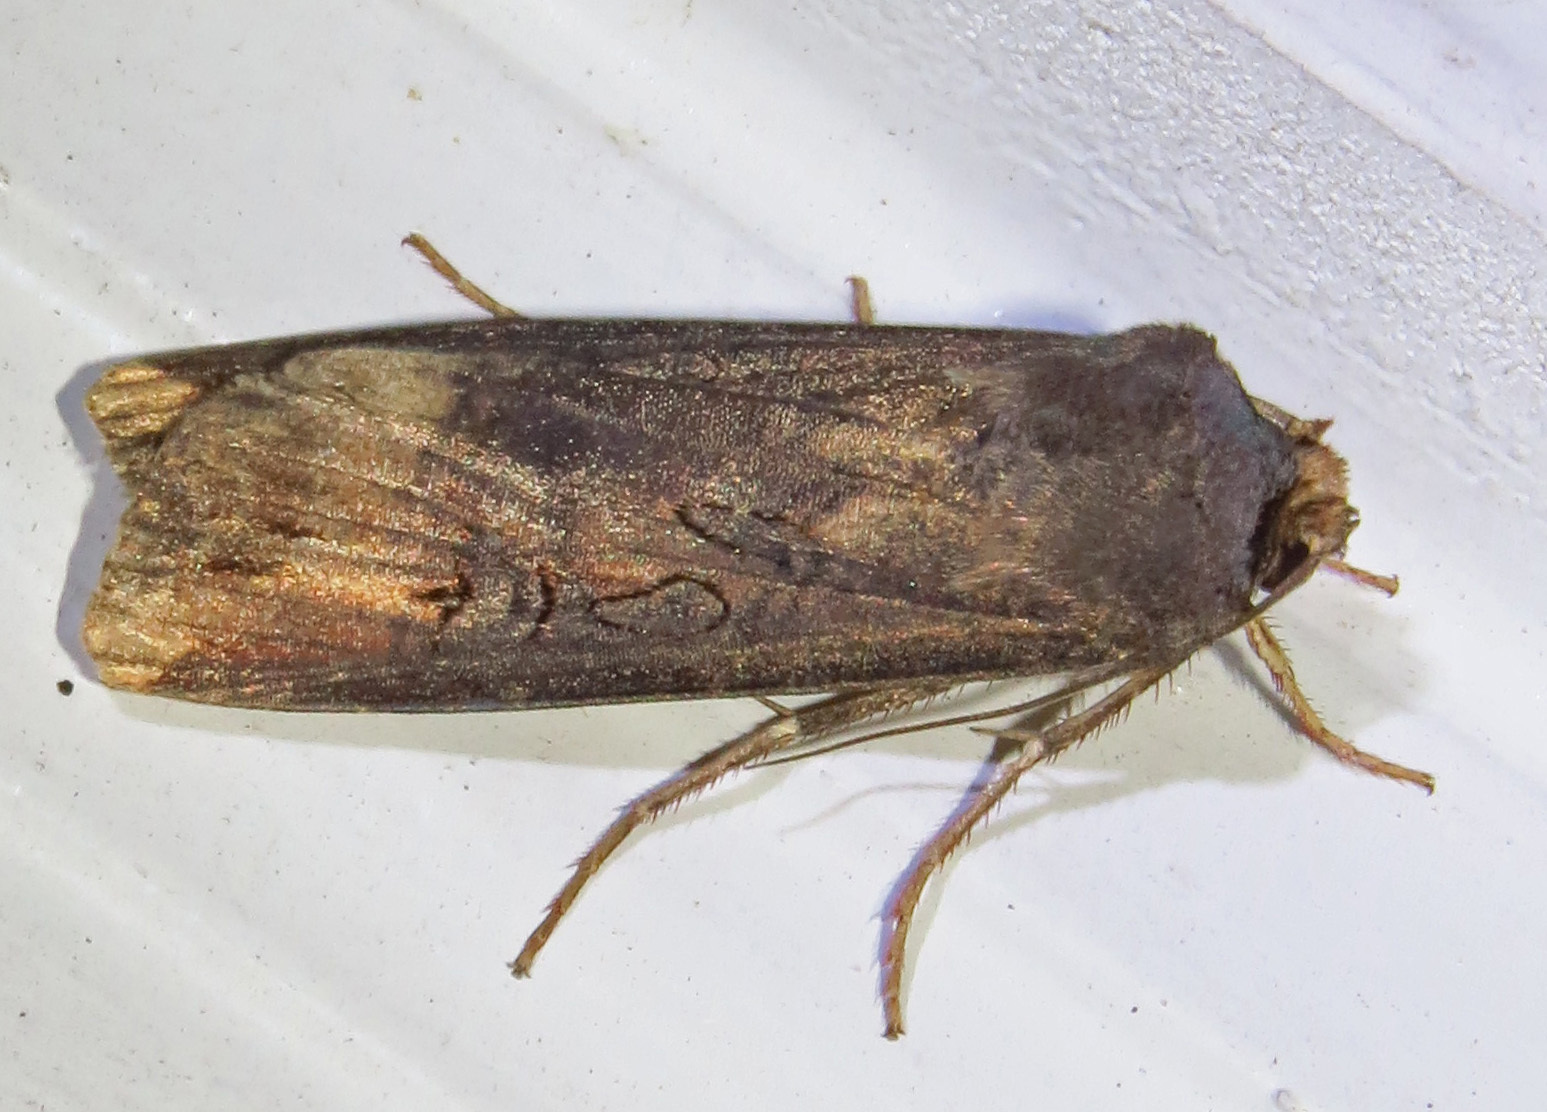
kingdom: Animalia
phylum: Arthropoda
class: Insecta
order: Lepidoptera
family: Noctuidae
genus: Agrotis
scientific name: Agrotis ipsilon
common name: Dark sword-grass
